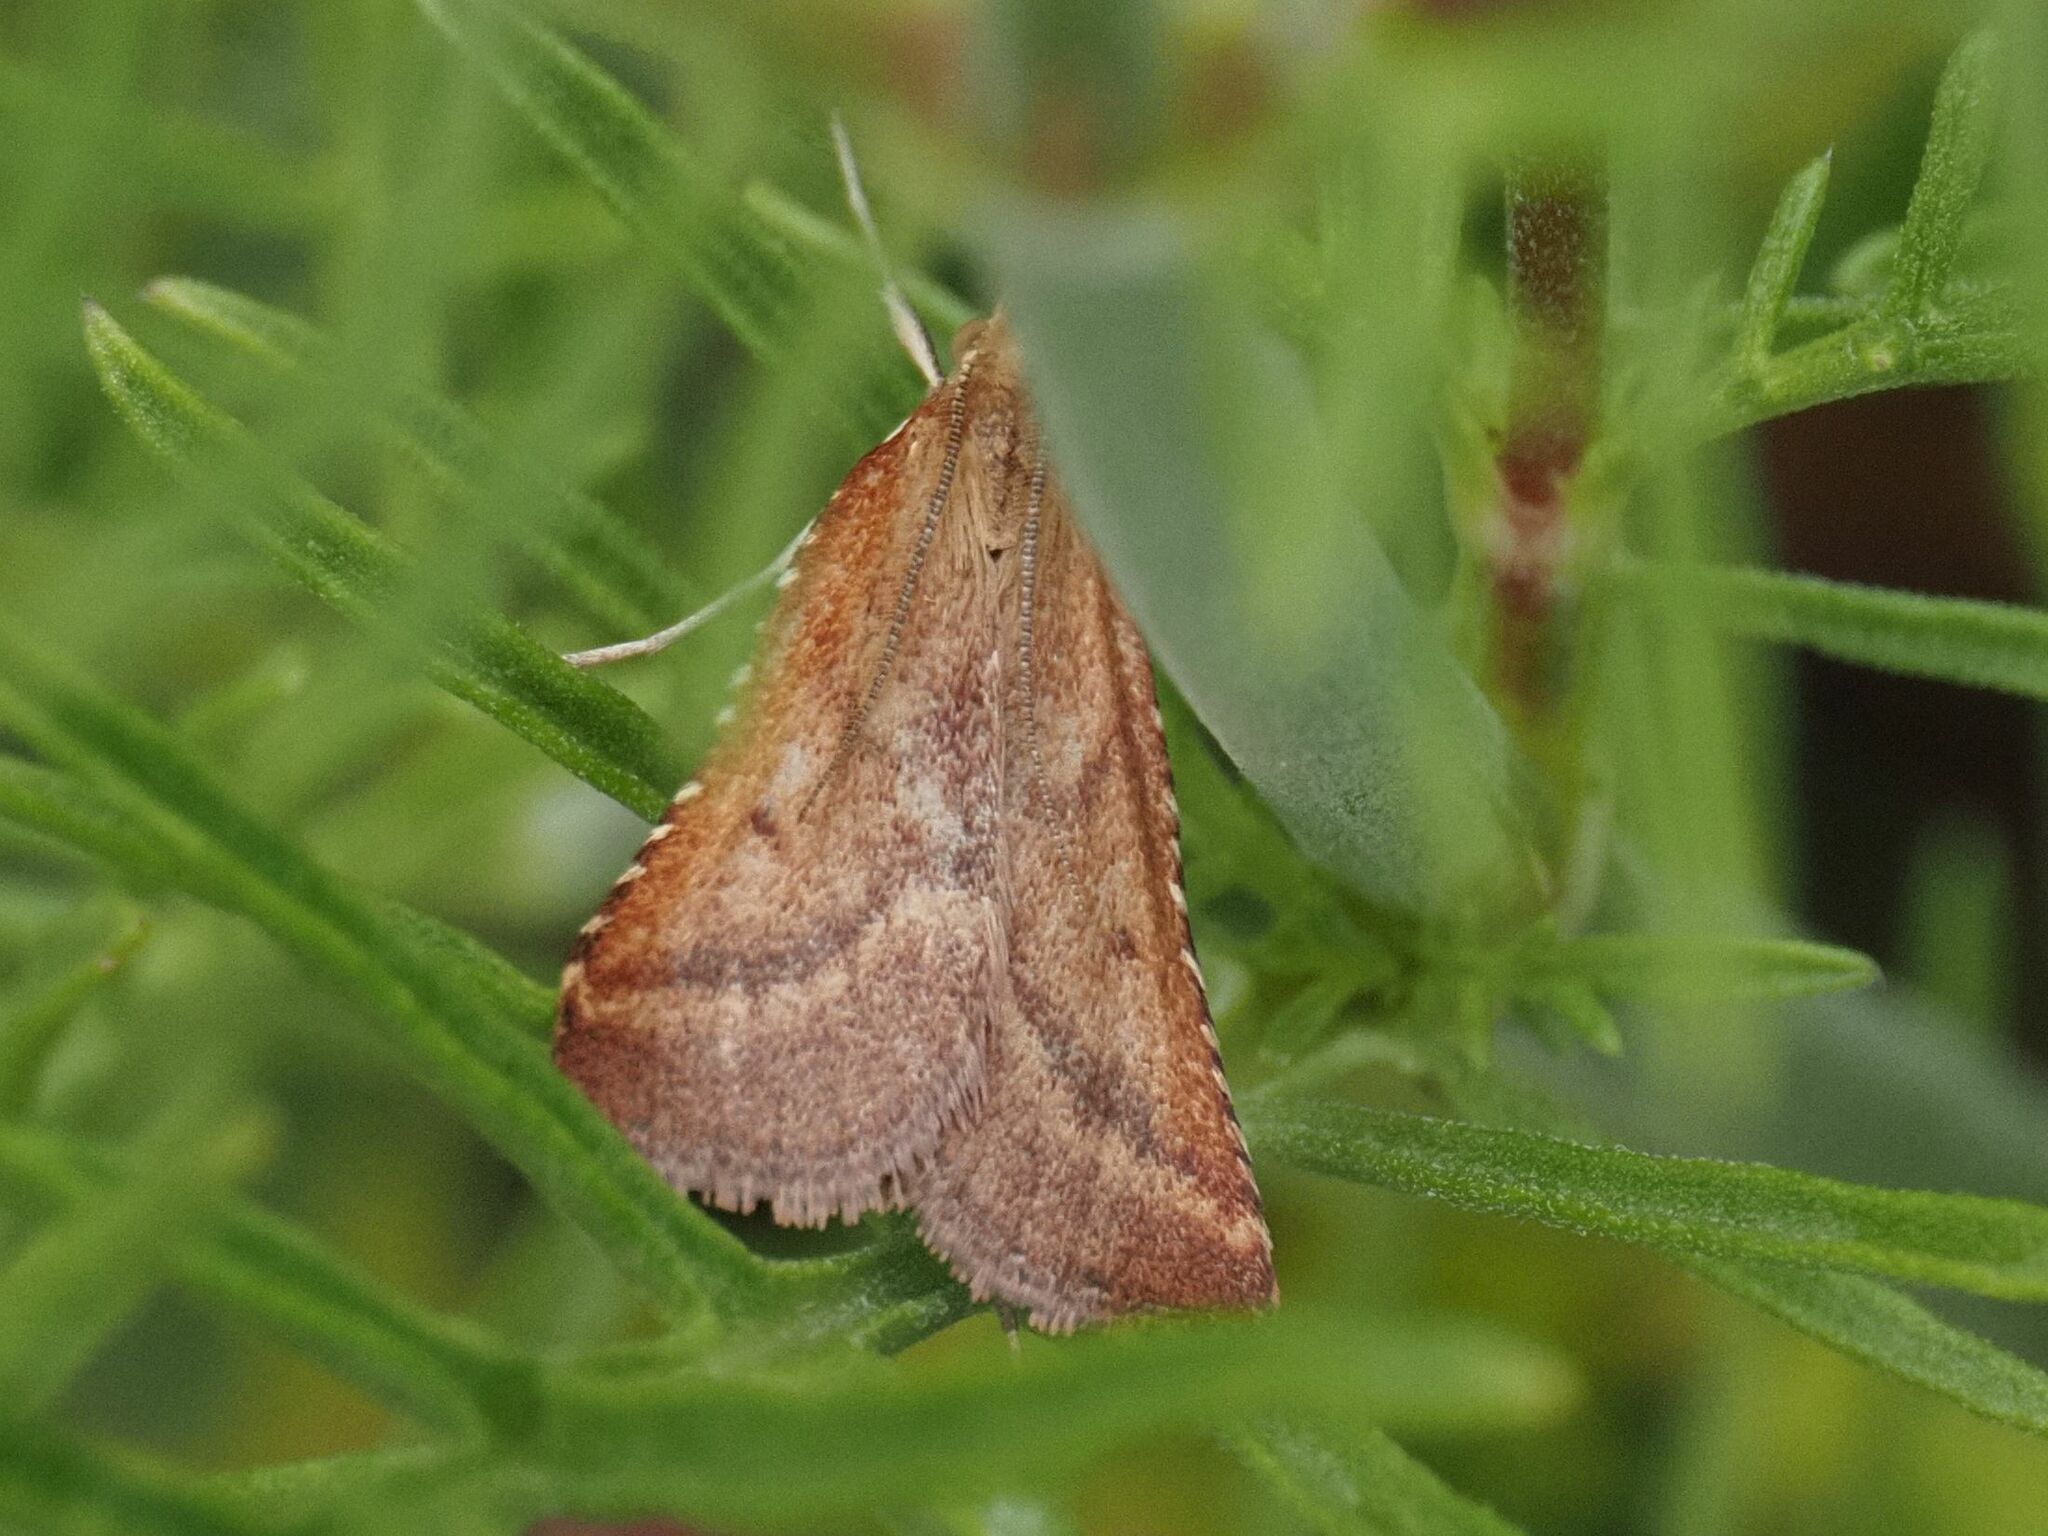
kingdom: Animalia
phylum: Arthropoda
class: Insecta
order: Lepidoptera
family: Pyralidae
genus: Synaphe
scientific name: Synaphe punctalis
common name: Long-legged tabby
